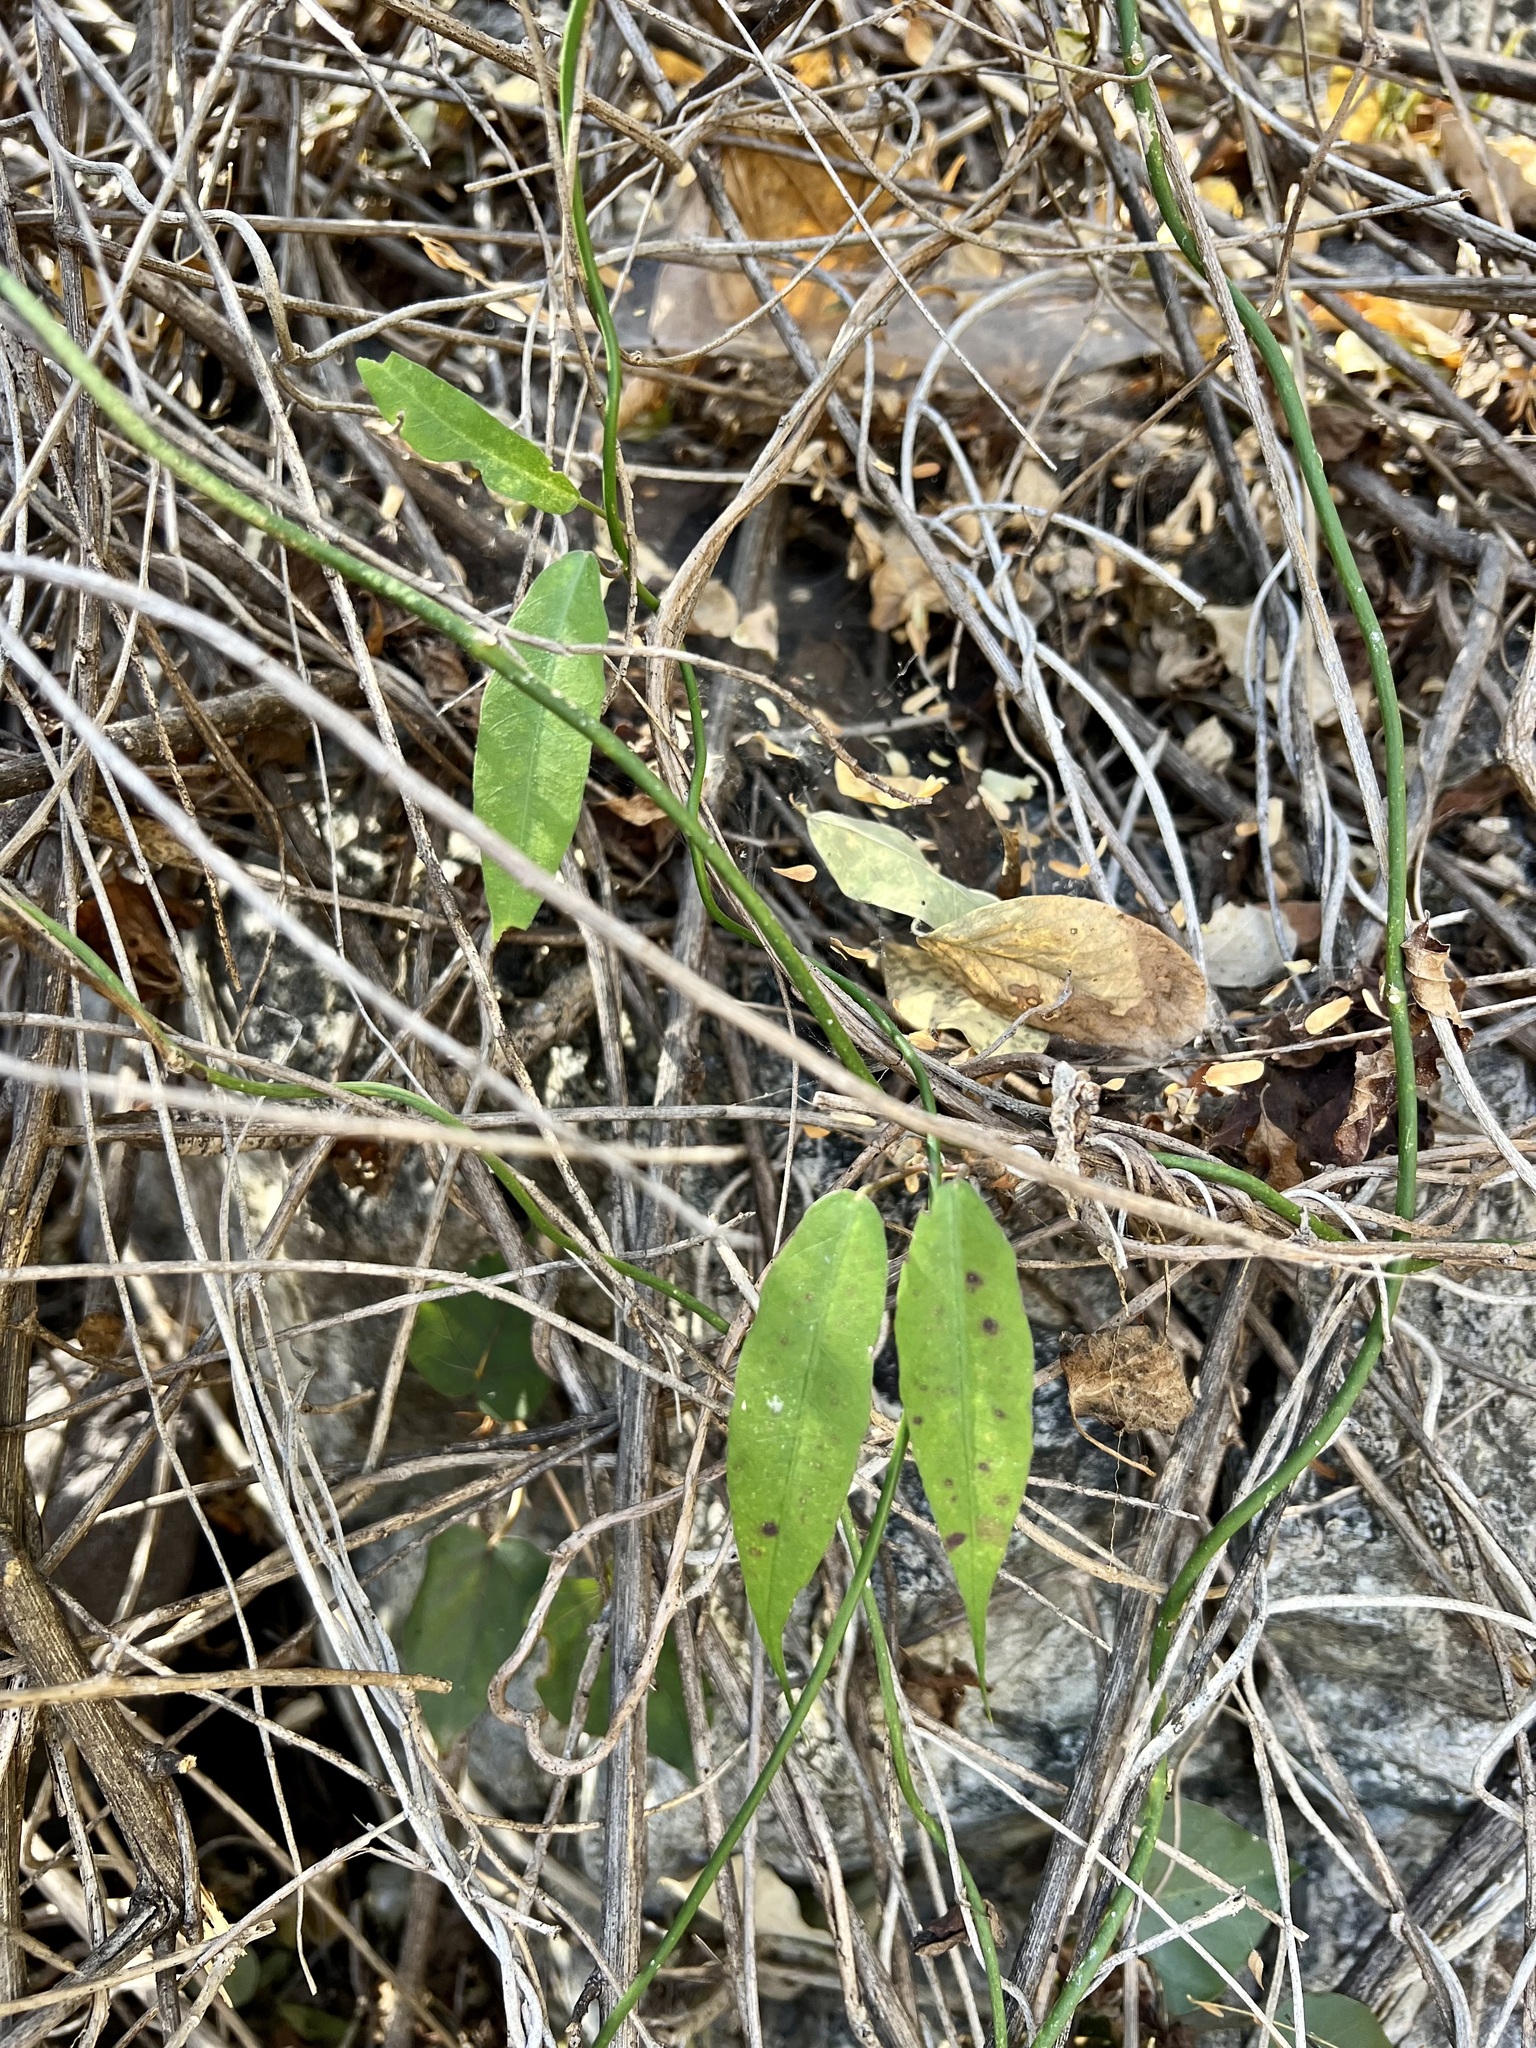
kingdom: Plantae
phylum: Tracheophyta
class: Magnoliopsida
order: Gentianales
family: Apocynaceae
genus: Funastrum
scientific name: Funastrum clausum
